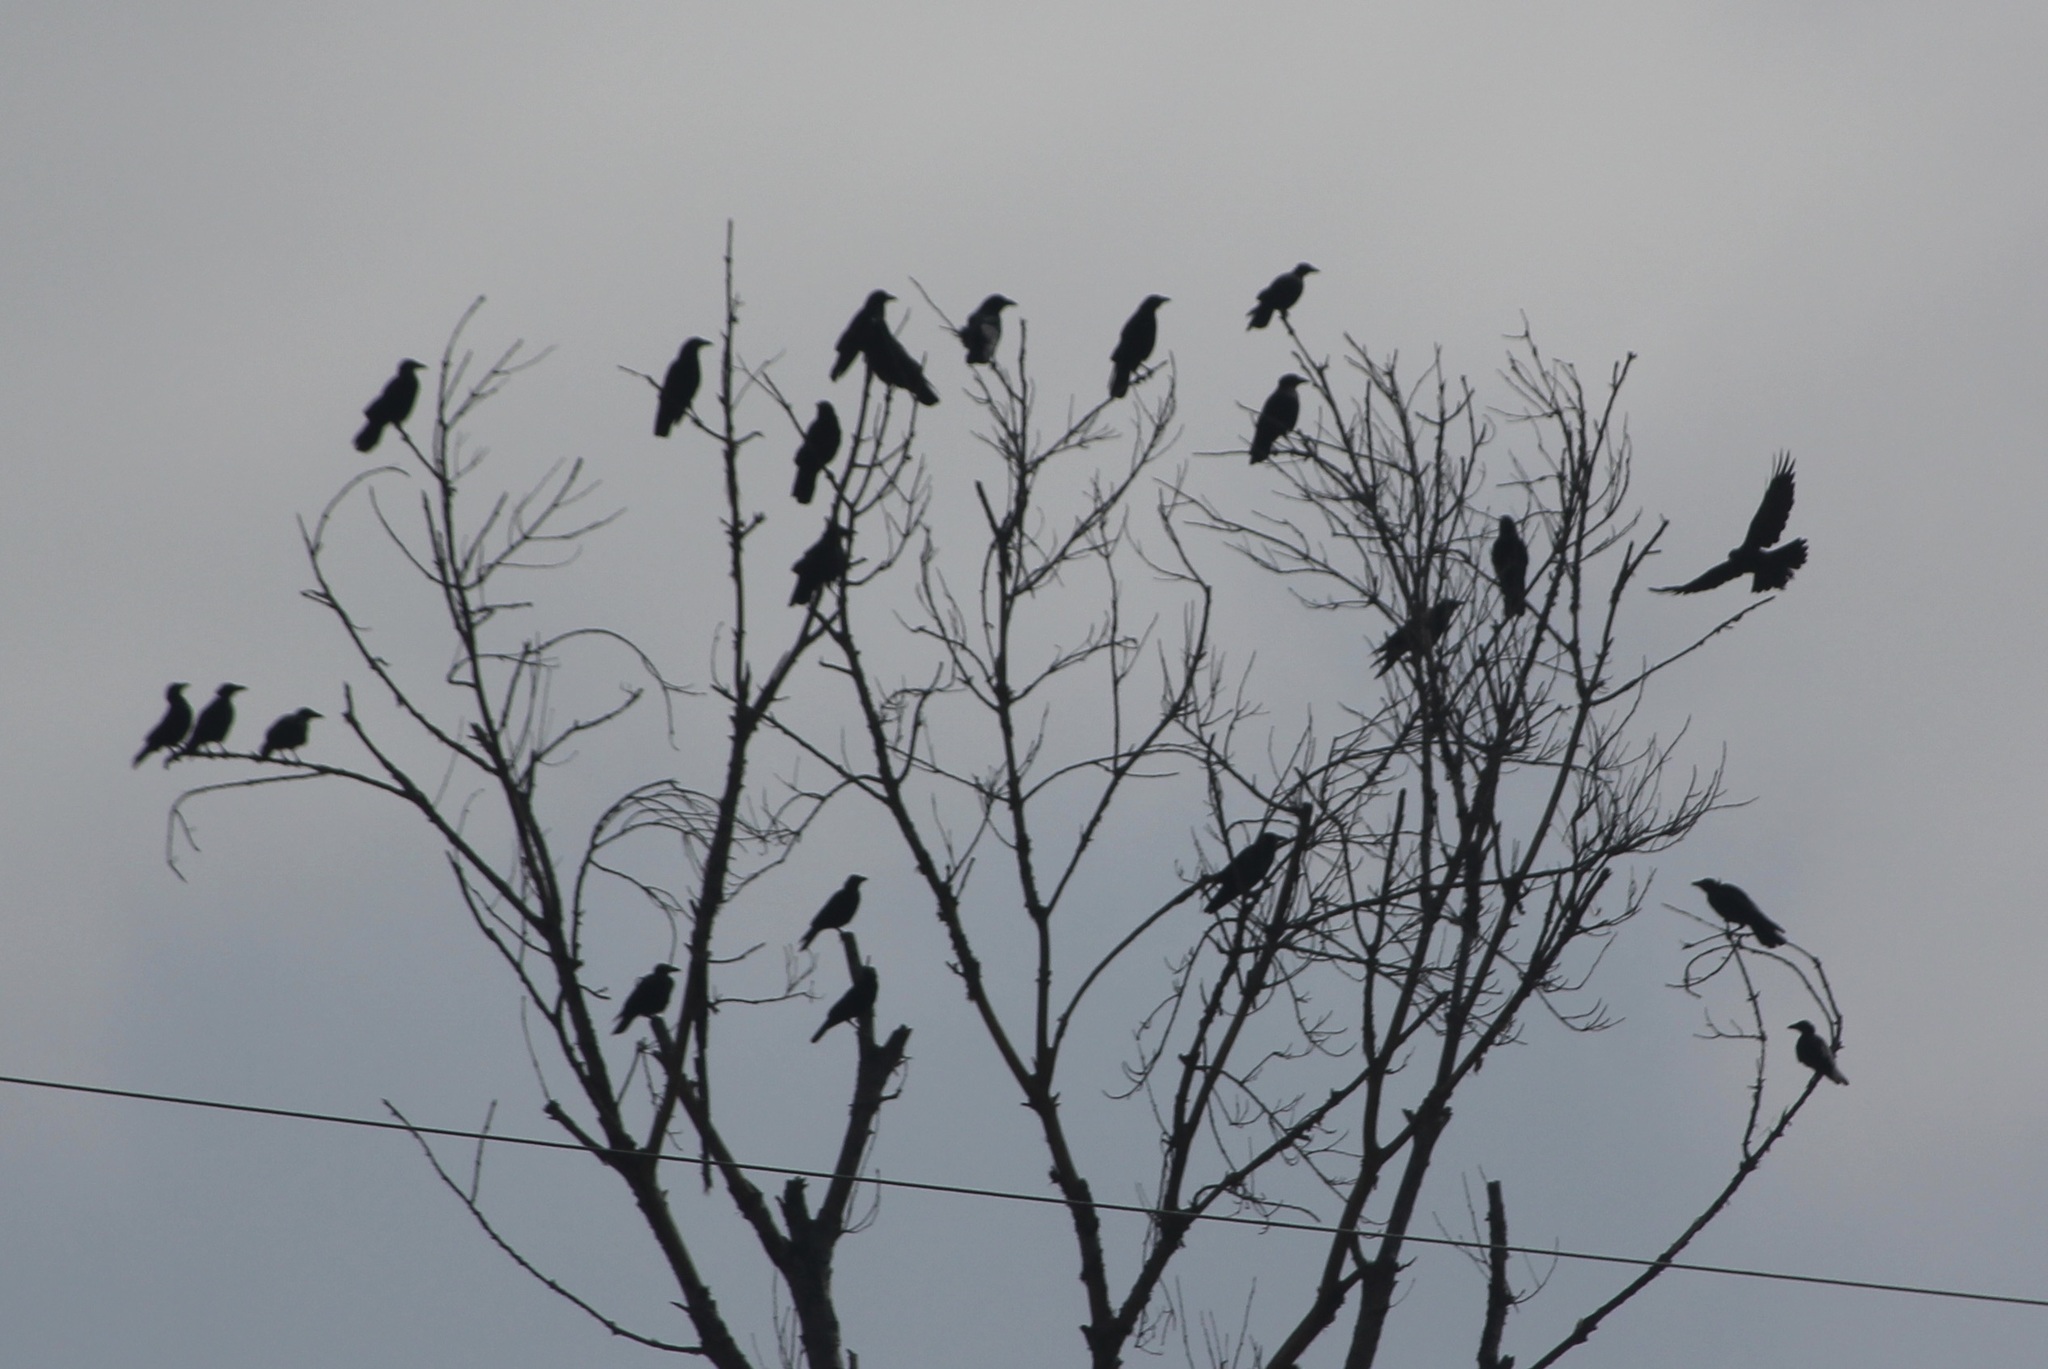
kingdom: Animalia
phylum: Chordata
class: Aves
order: Passeriformes
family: Corvidae
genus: Corvus
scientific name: Corvus brachyrhynchos
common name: American crow
